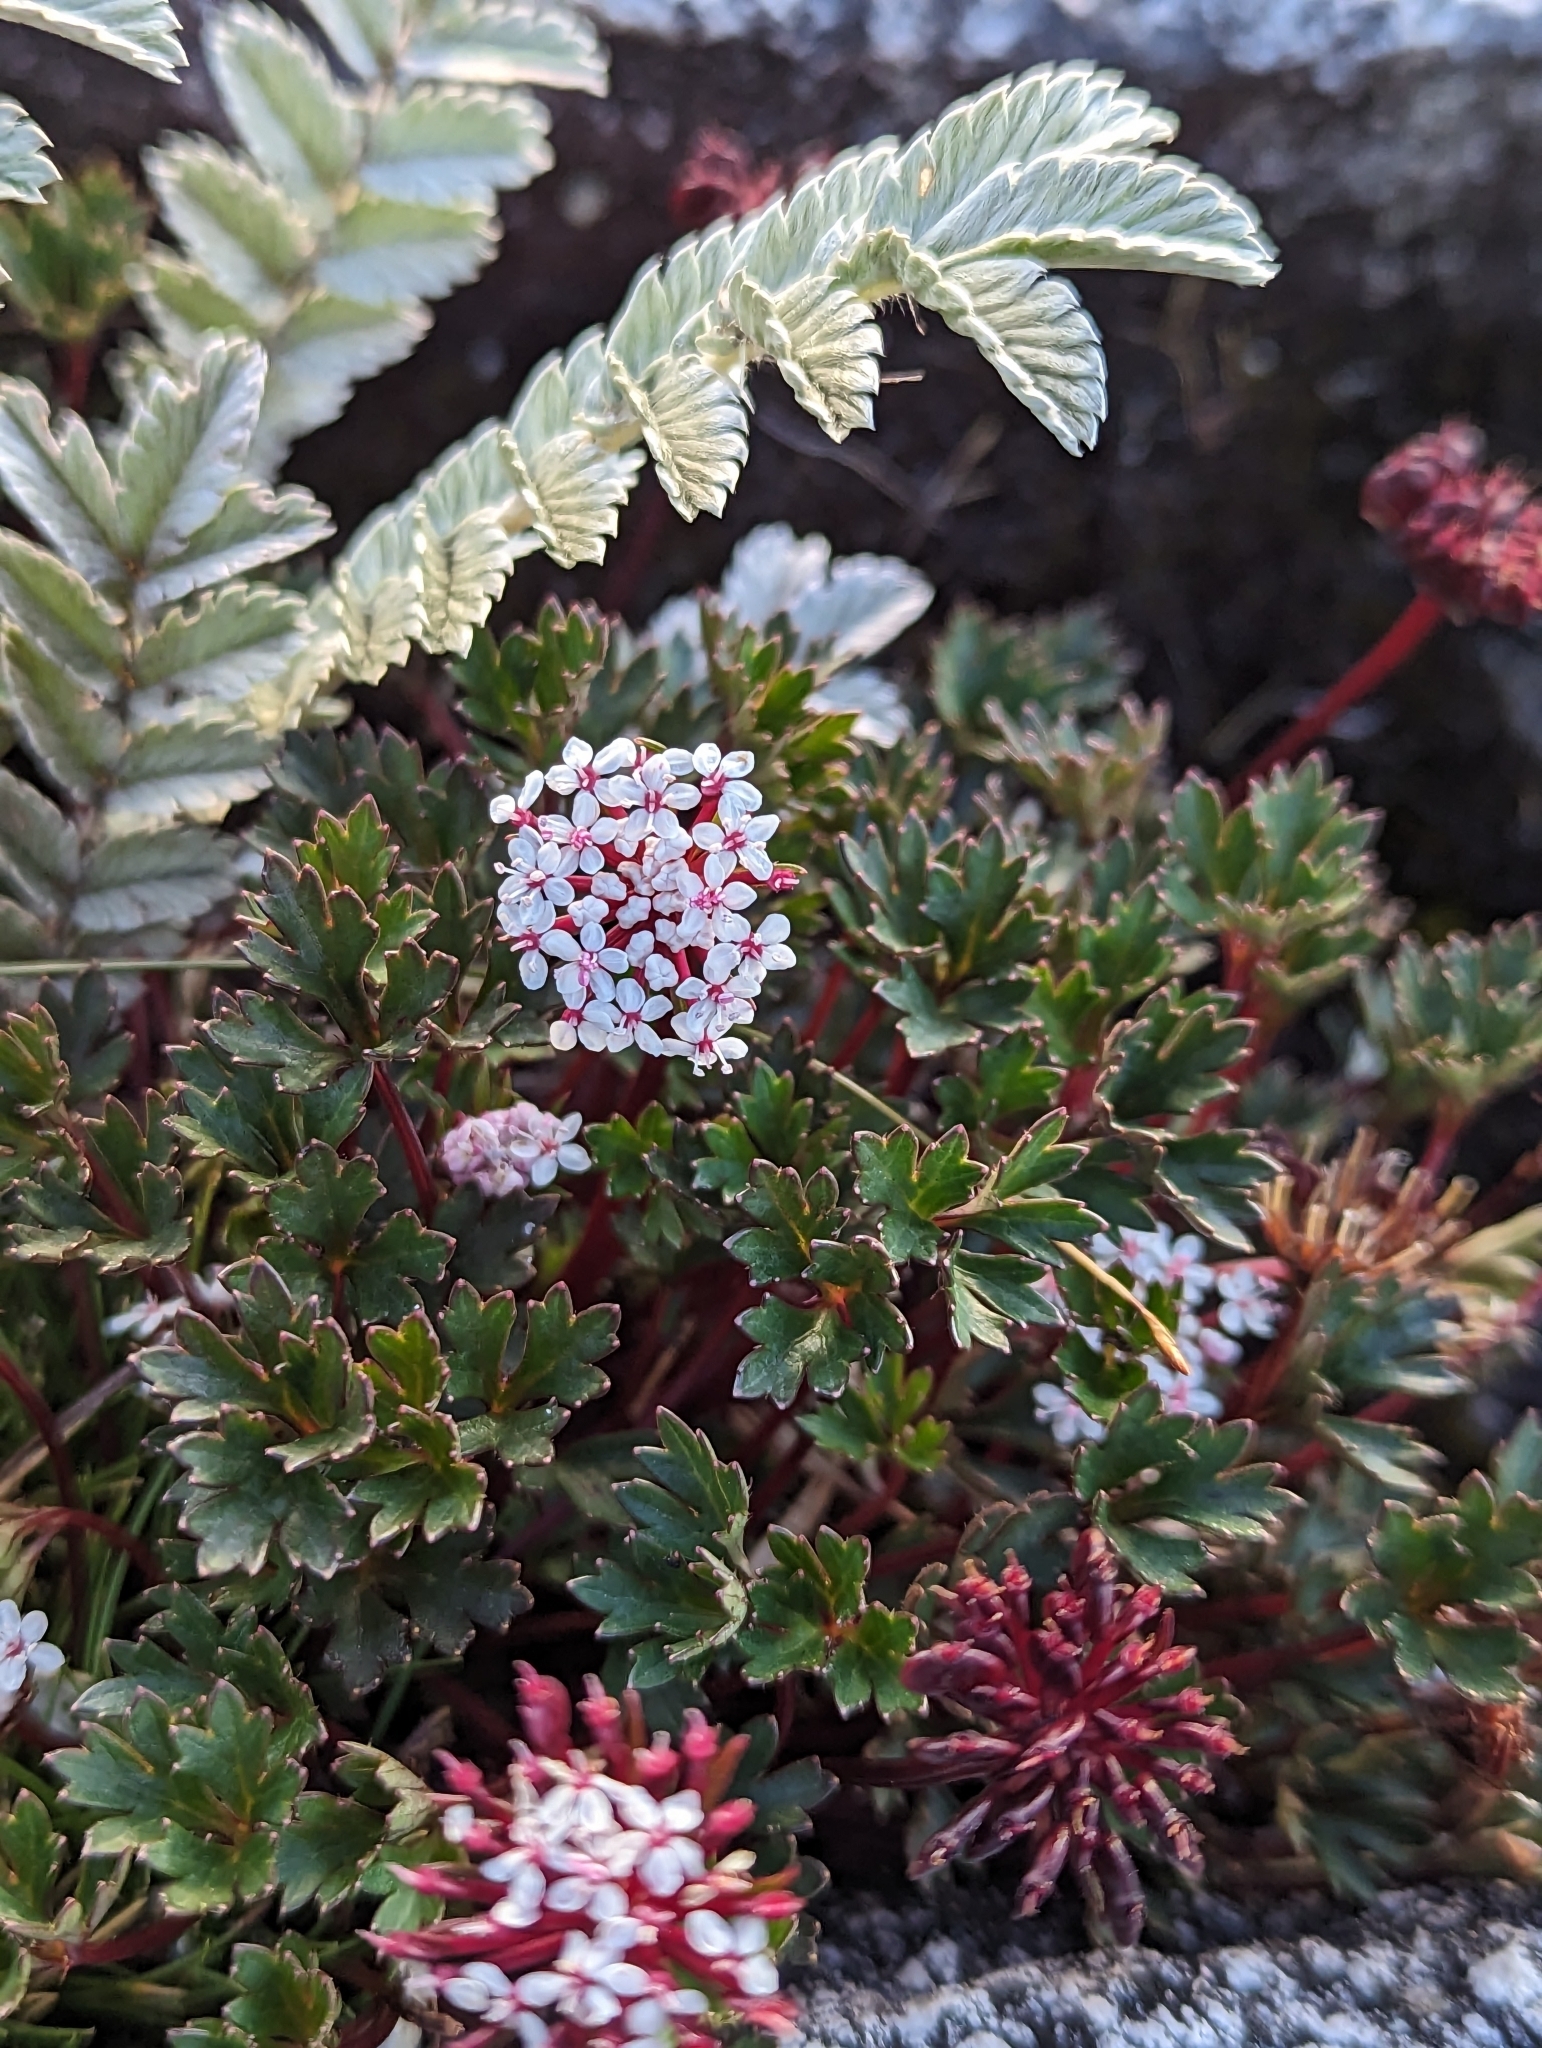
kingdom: Plantae
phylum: Tracheophyta
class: Magnoliopsida
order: Apiales
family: Araliaceae
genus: Trachymene
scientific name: Trachymene saniculifolia
